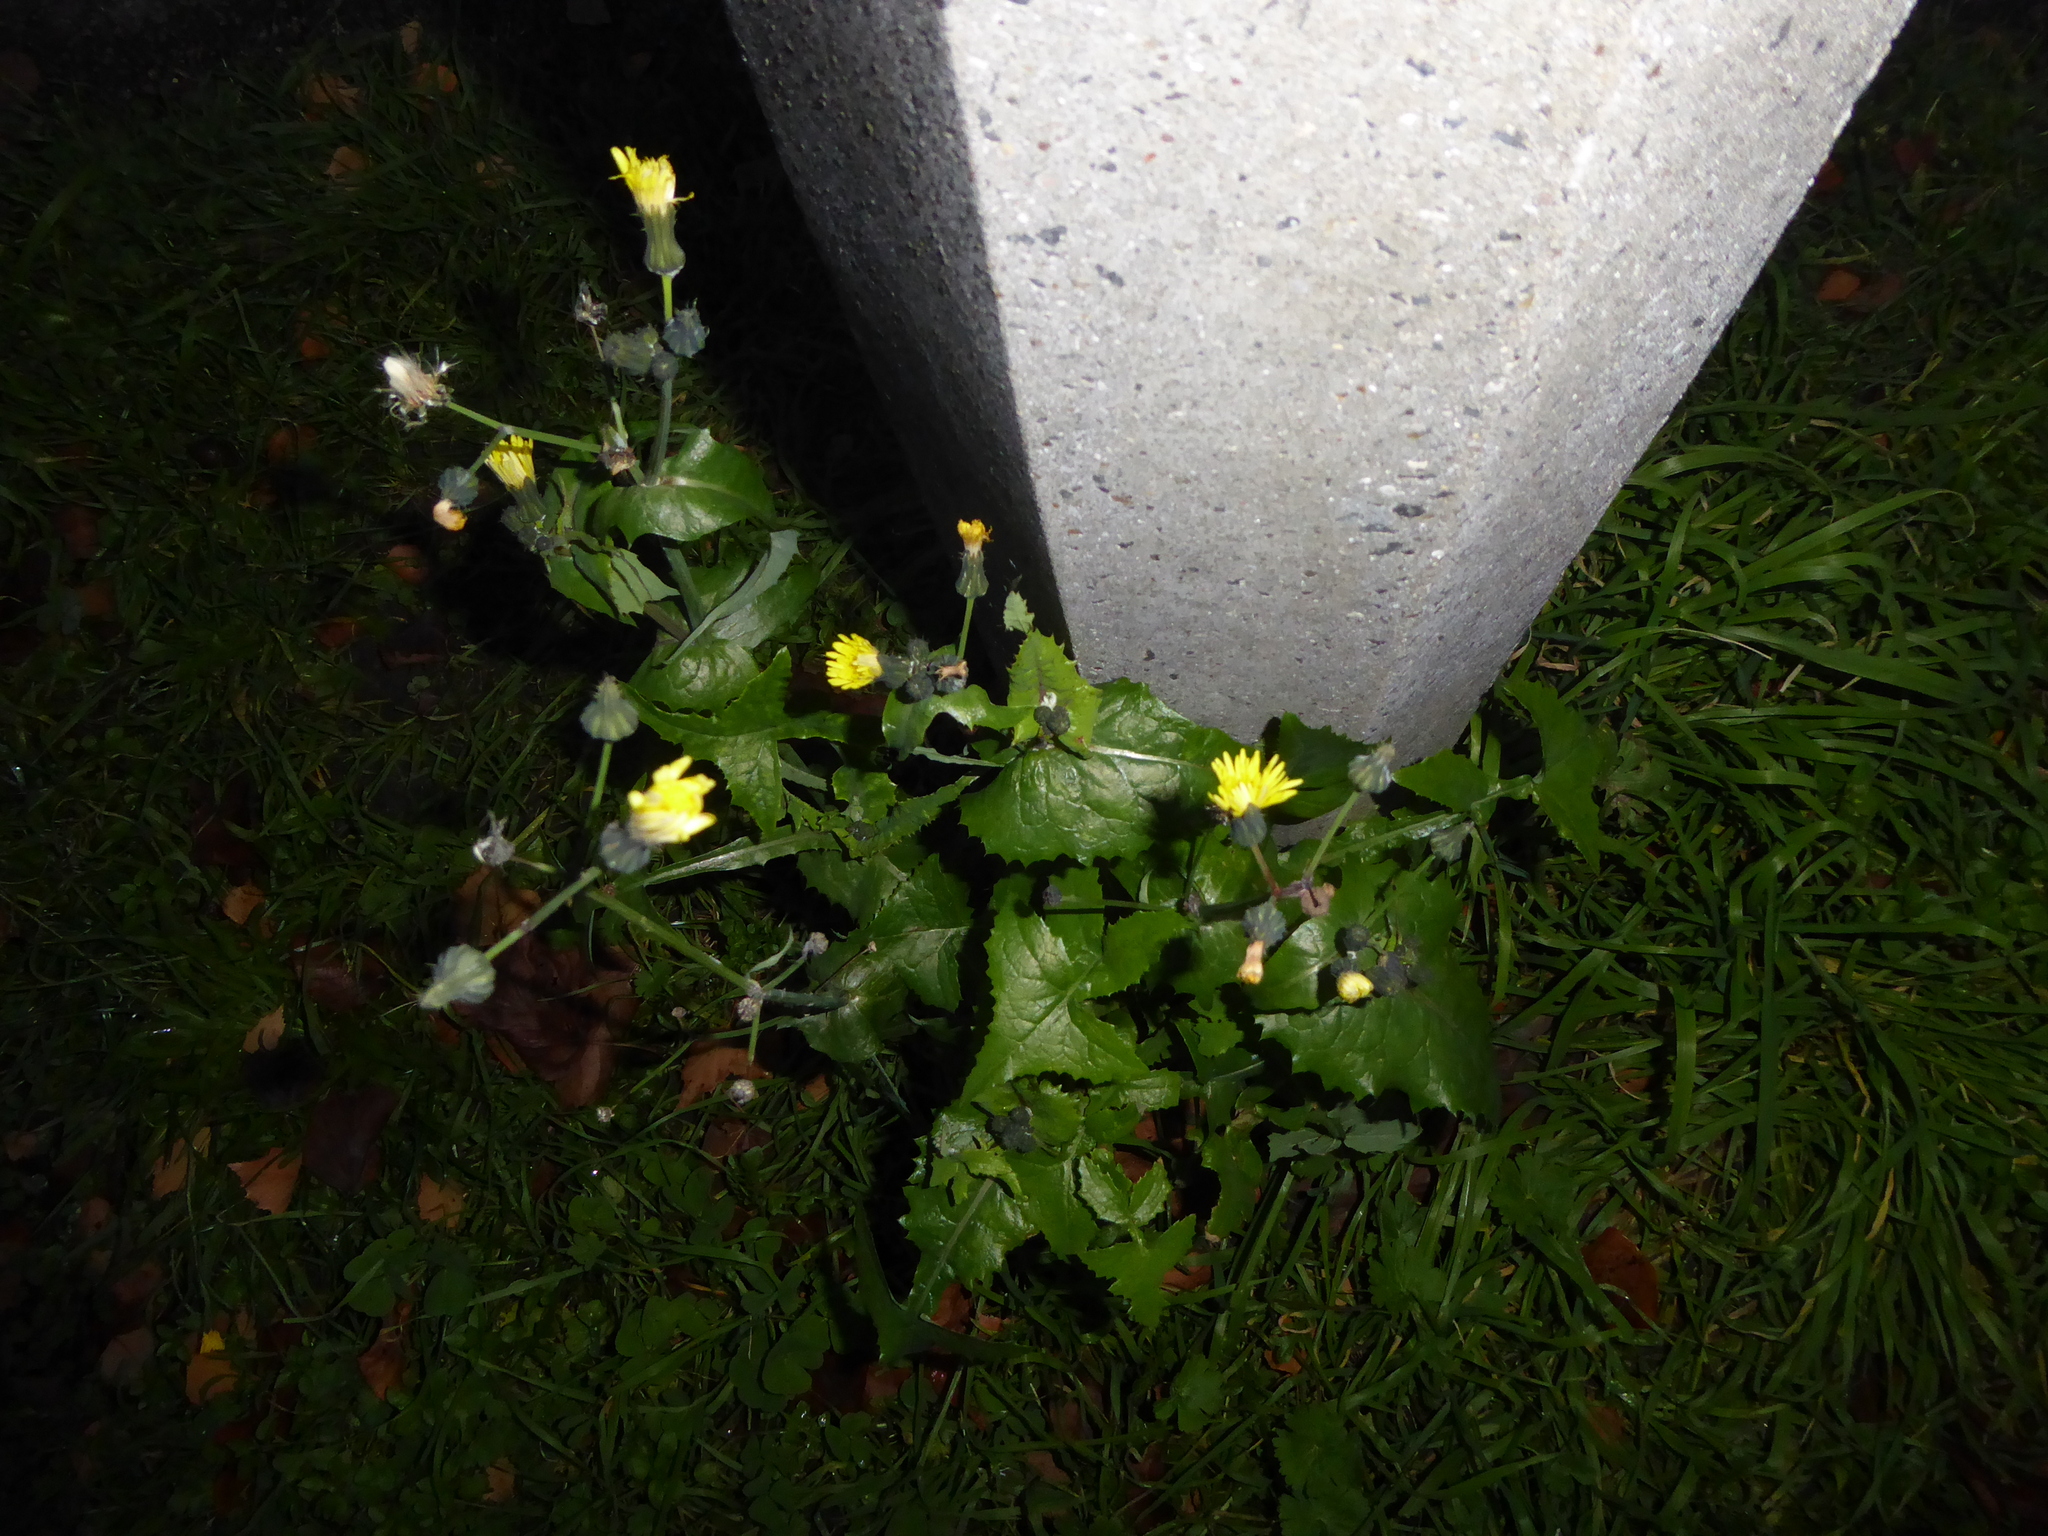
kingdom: Plantae
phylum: Tracheophyta
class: Magnoliopsida
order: Asterales
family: Asteraceae
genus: Sonchus
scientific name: Sonchus oleraceus
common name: Common sowthistle
